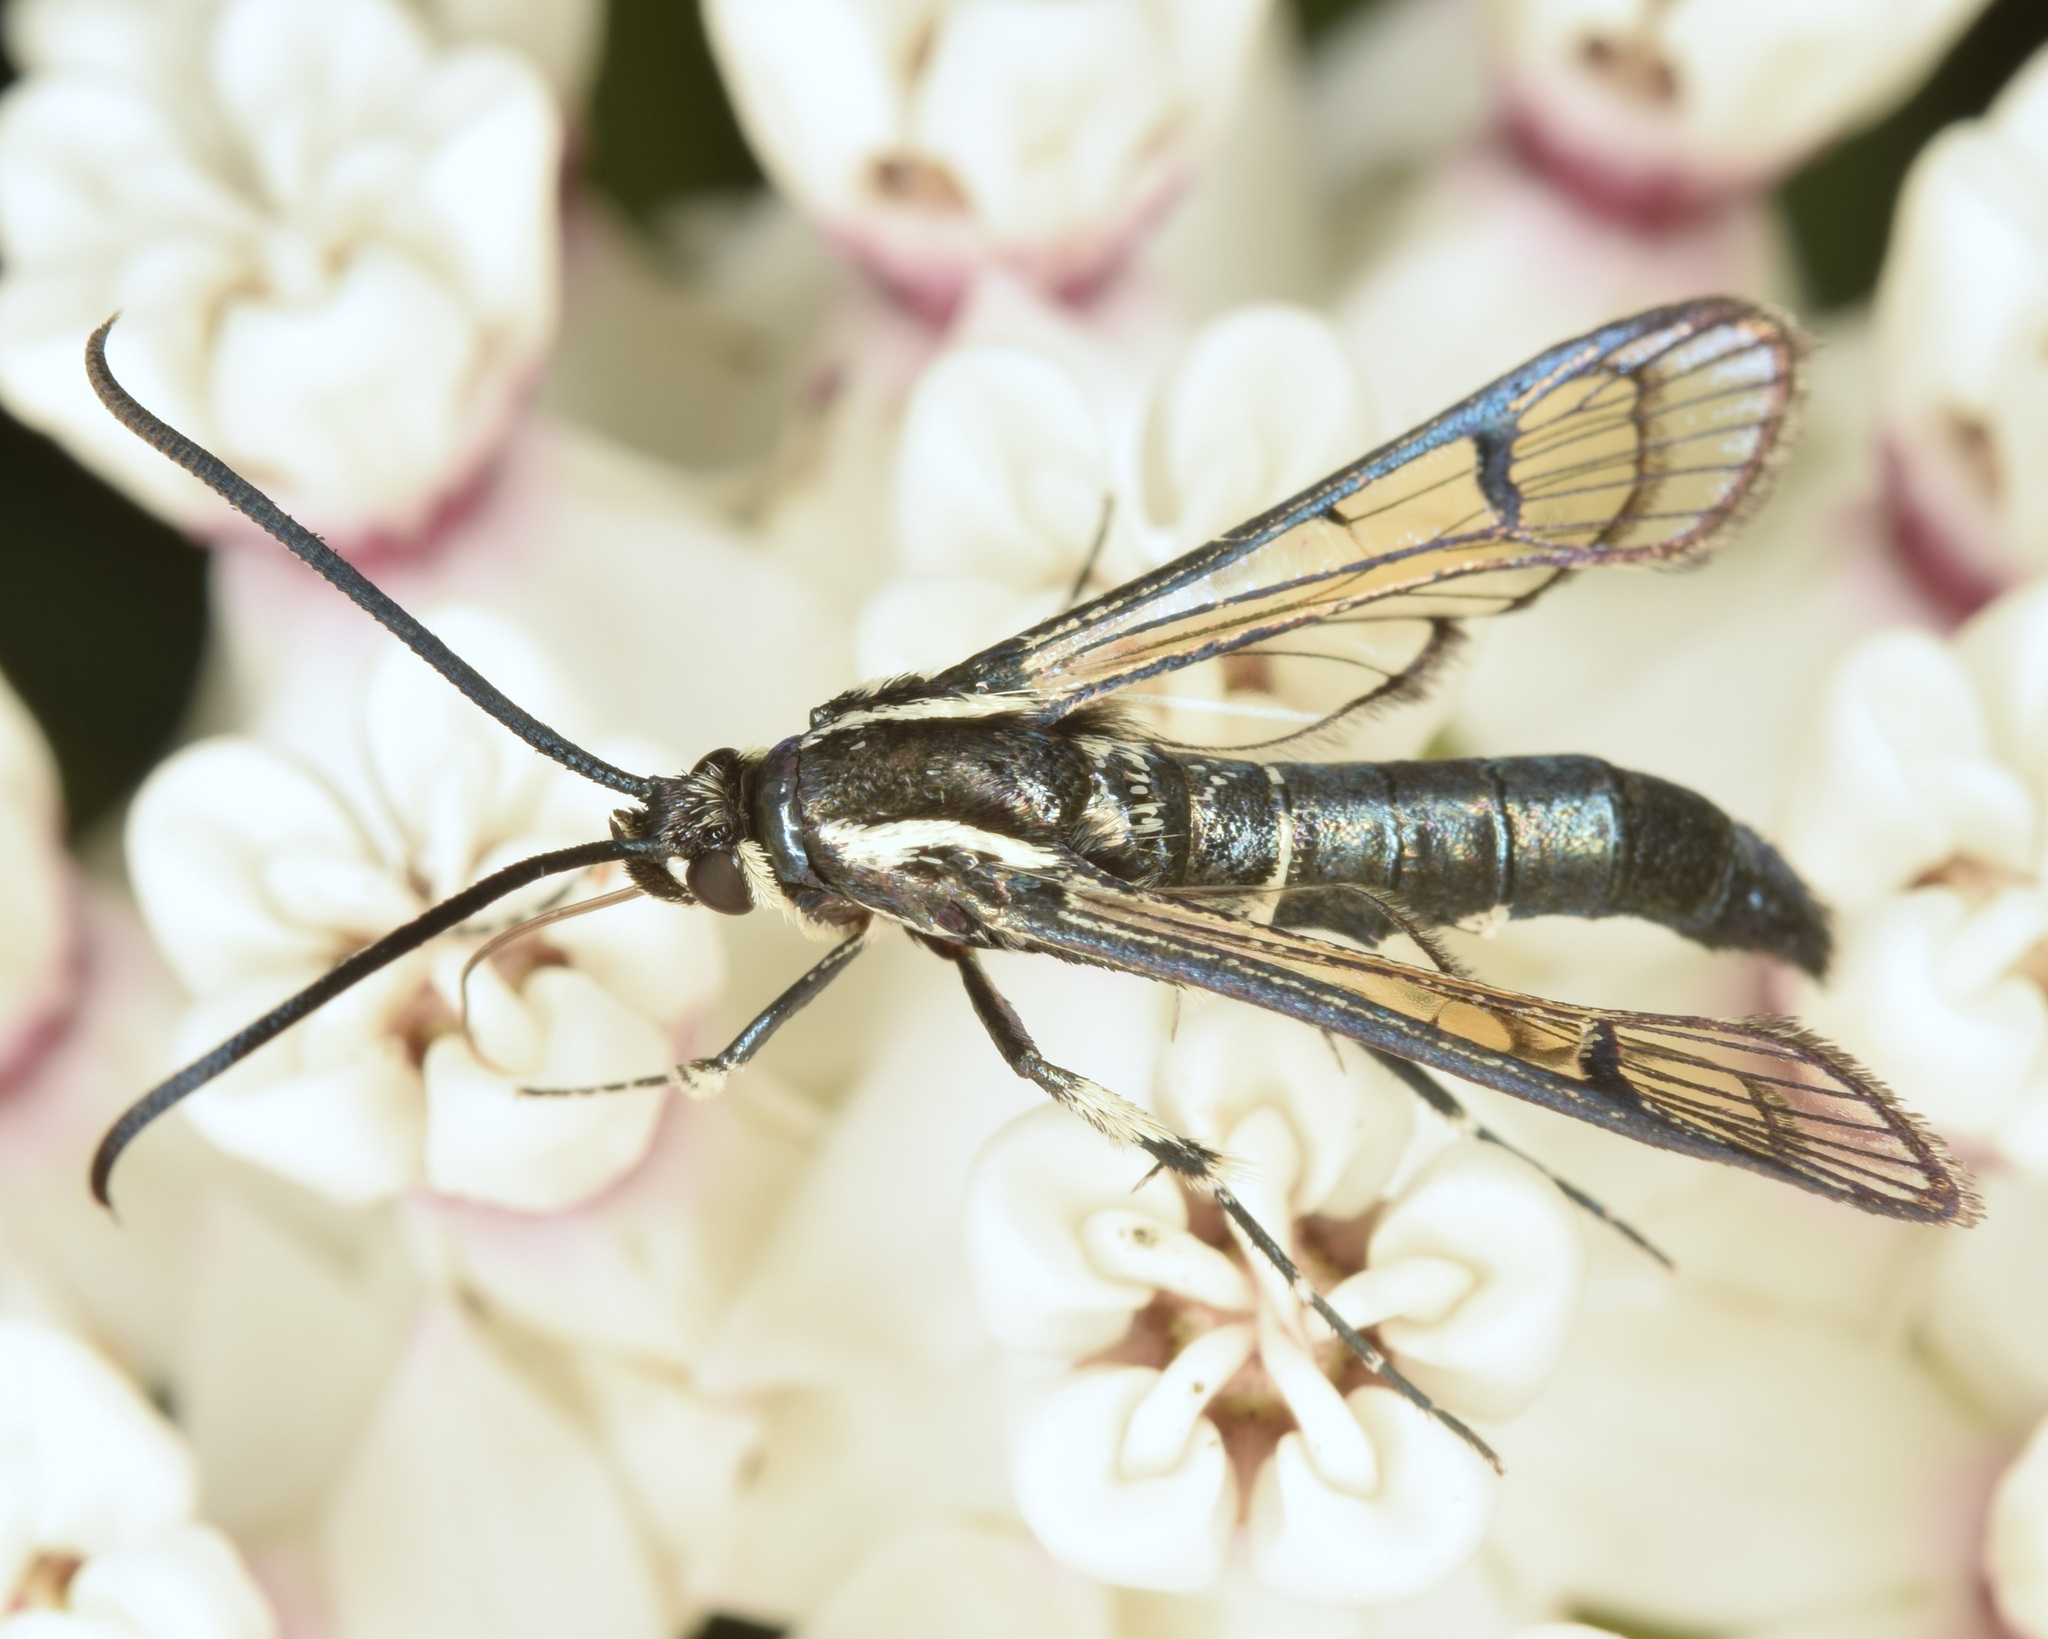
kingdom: Animalia
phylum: Arthropoda
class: Insecta
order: Lepidoptera
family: Sesiidae
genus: Synanthedon
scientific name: Synanthedon pictipes
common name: Lesser peachtree borer moth
